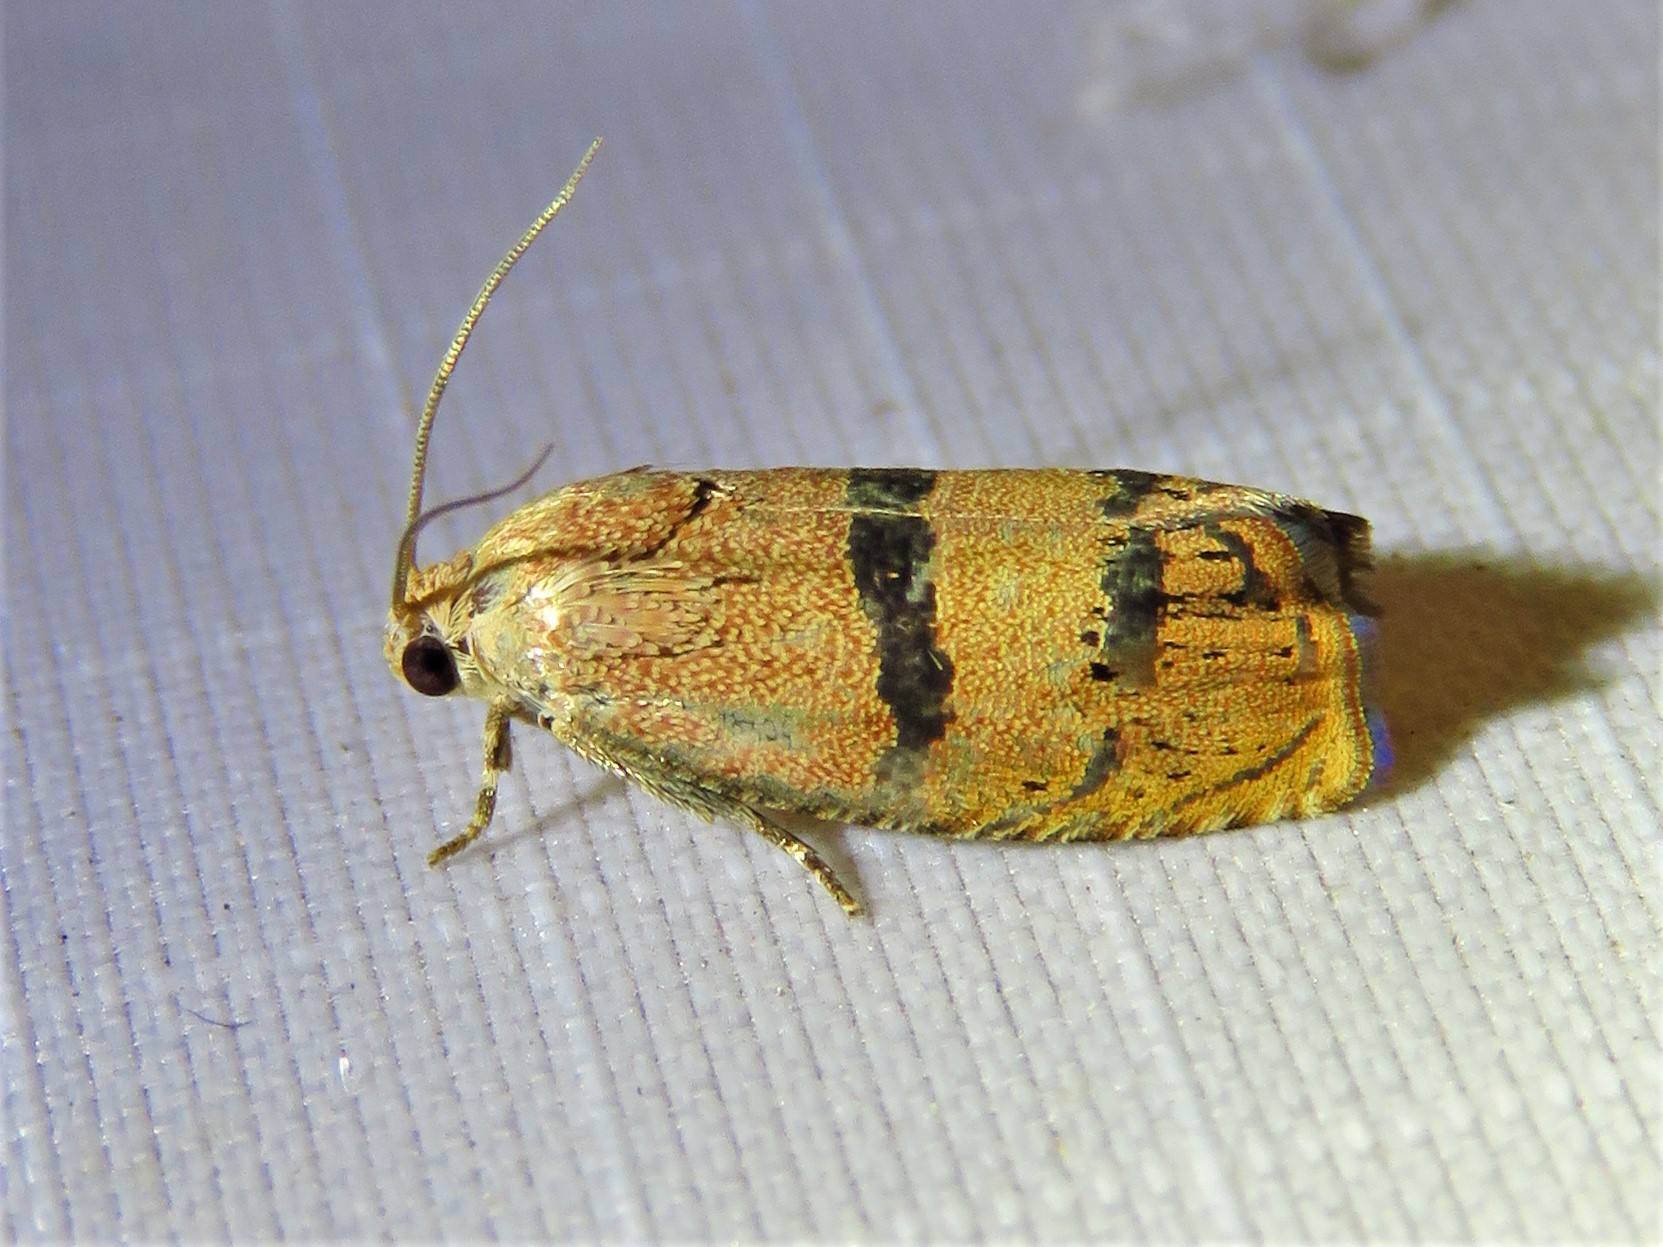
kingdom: Animalia
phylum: Arthropoda
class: Insecta
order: Lepidoptera
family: Tortricidae
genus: Cydia
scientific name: Cydia latiferreana
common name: Filbertworm moth
